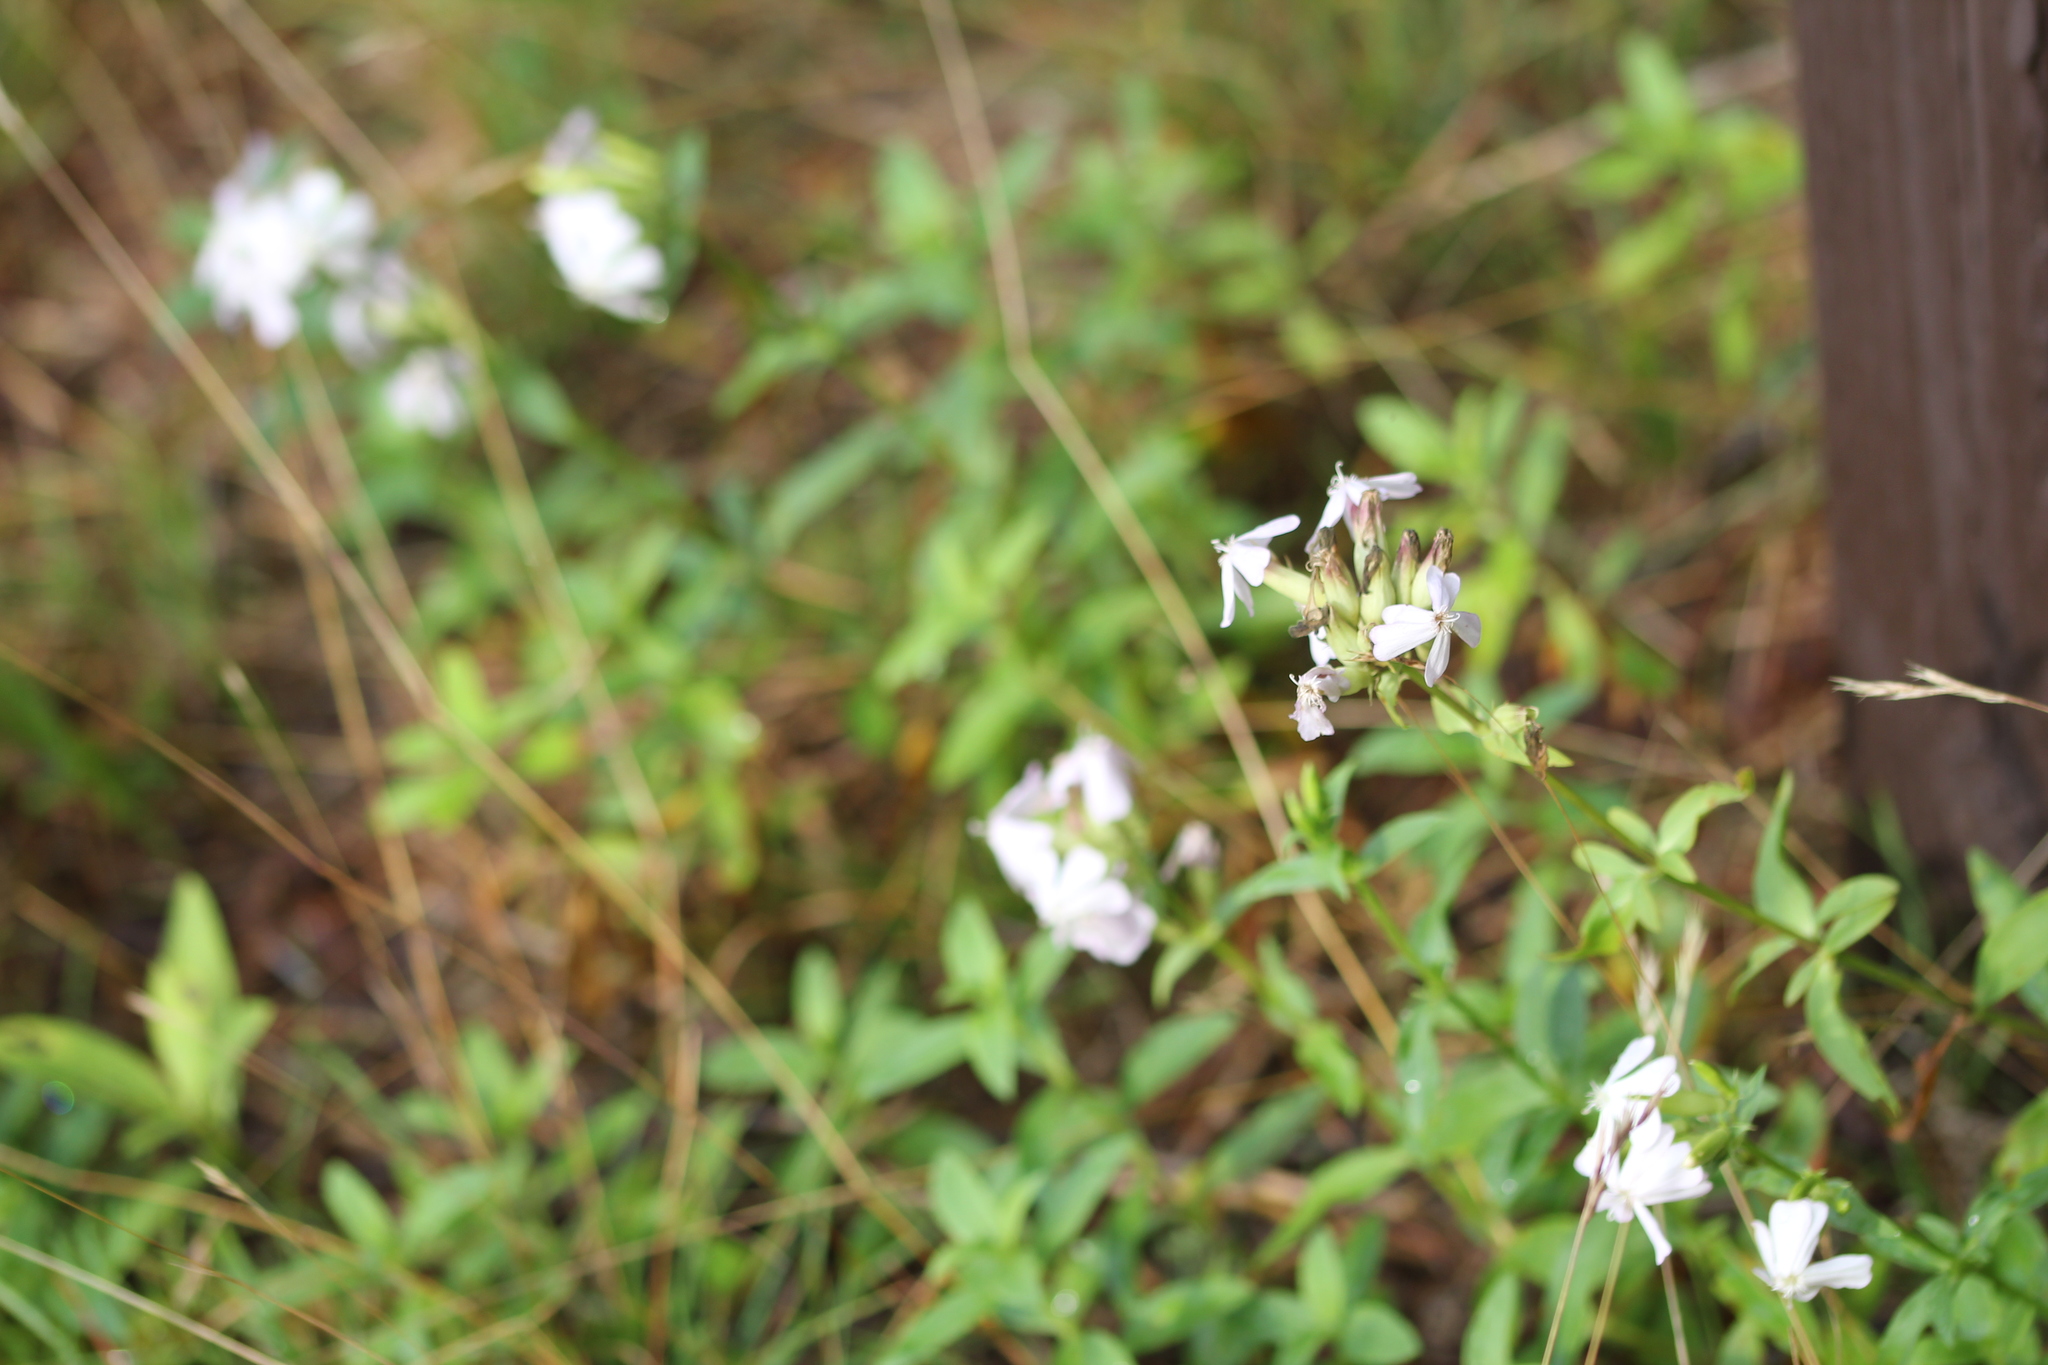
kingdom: Plantae
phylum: Tracheophyta
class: Magnoliopsida
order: Caryophyllales
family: Caryophyllaceae
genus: Saponaria
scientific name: Saponaria officinalis
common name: Soapwort
